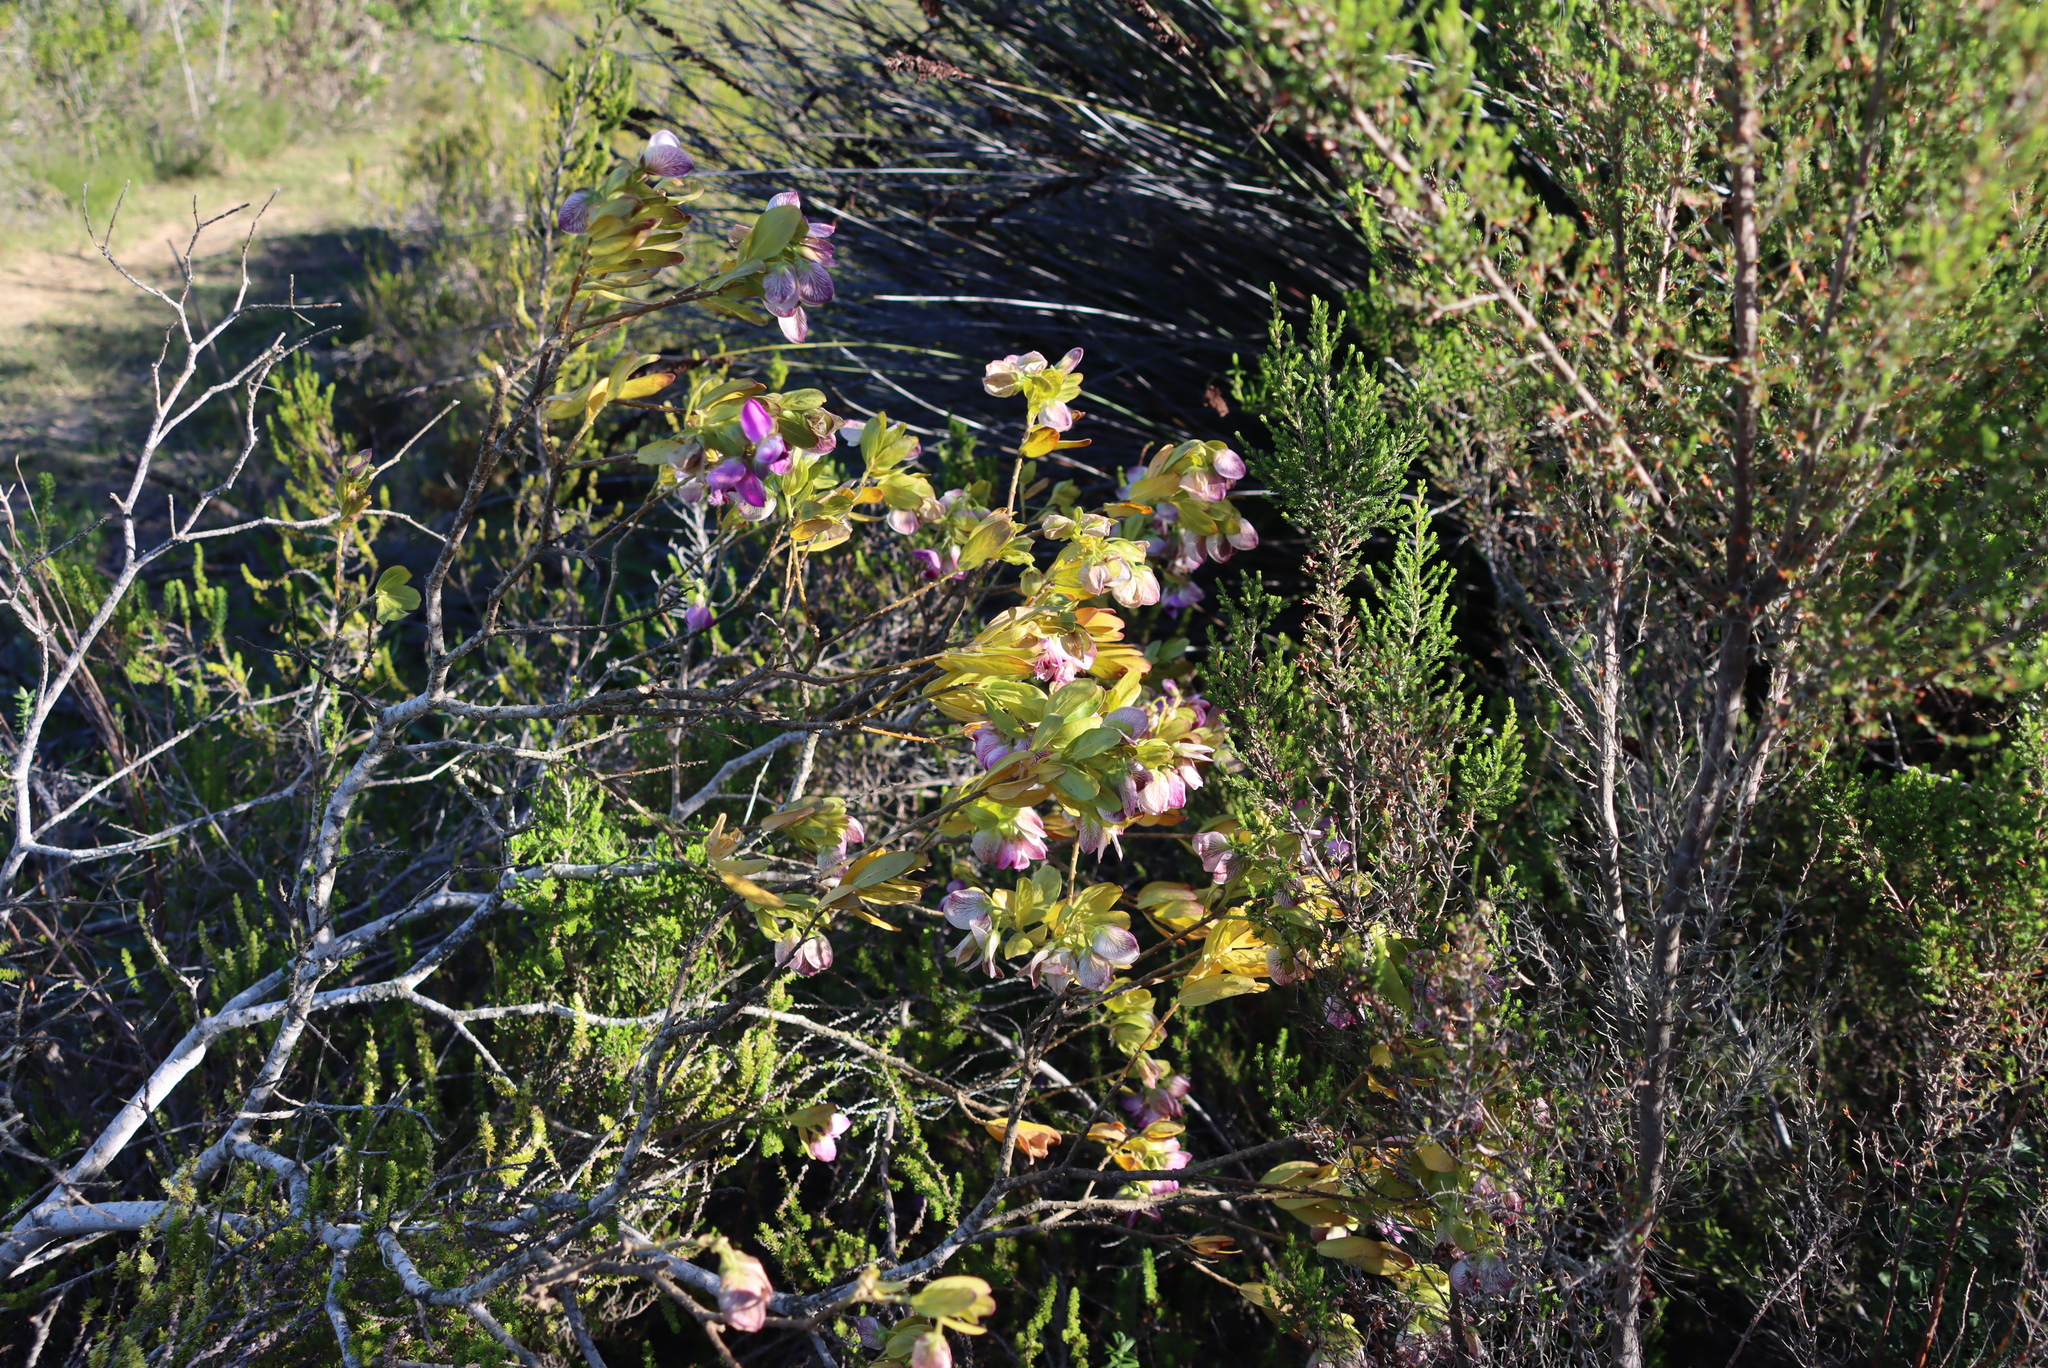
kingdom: Plantae
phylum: Tracheophyta
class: Magnoliopsida
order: Fabales
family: Polygalaceae
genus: Polygala
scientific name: Polygala myrtifolia
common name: Myrtle-leaf milkwort
